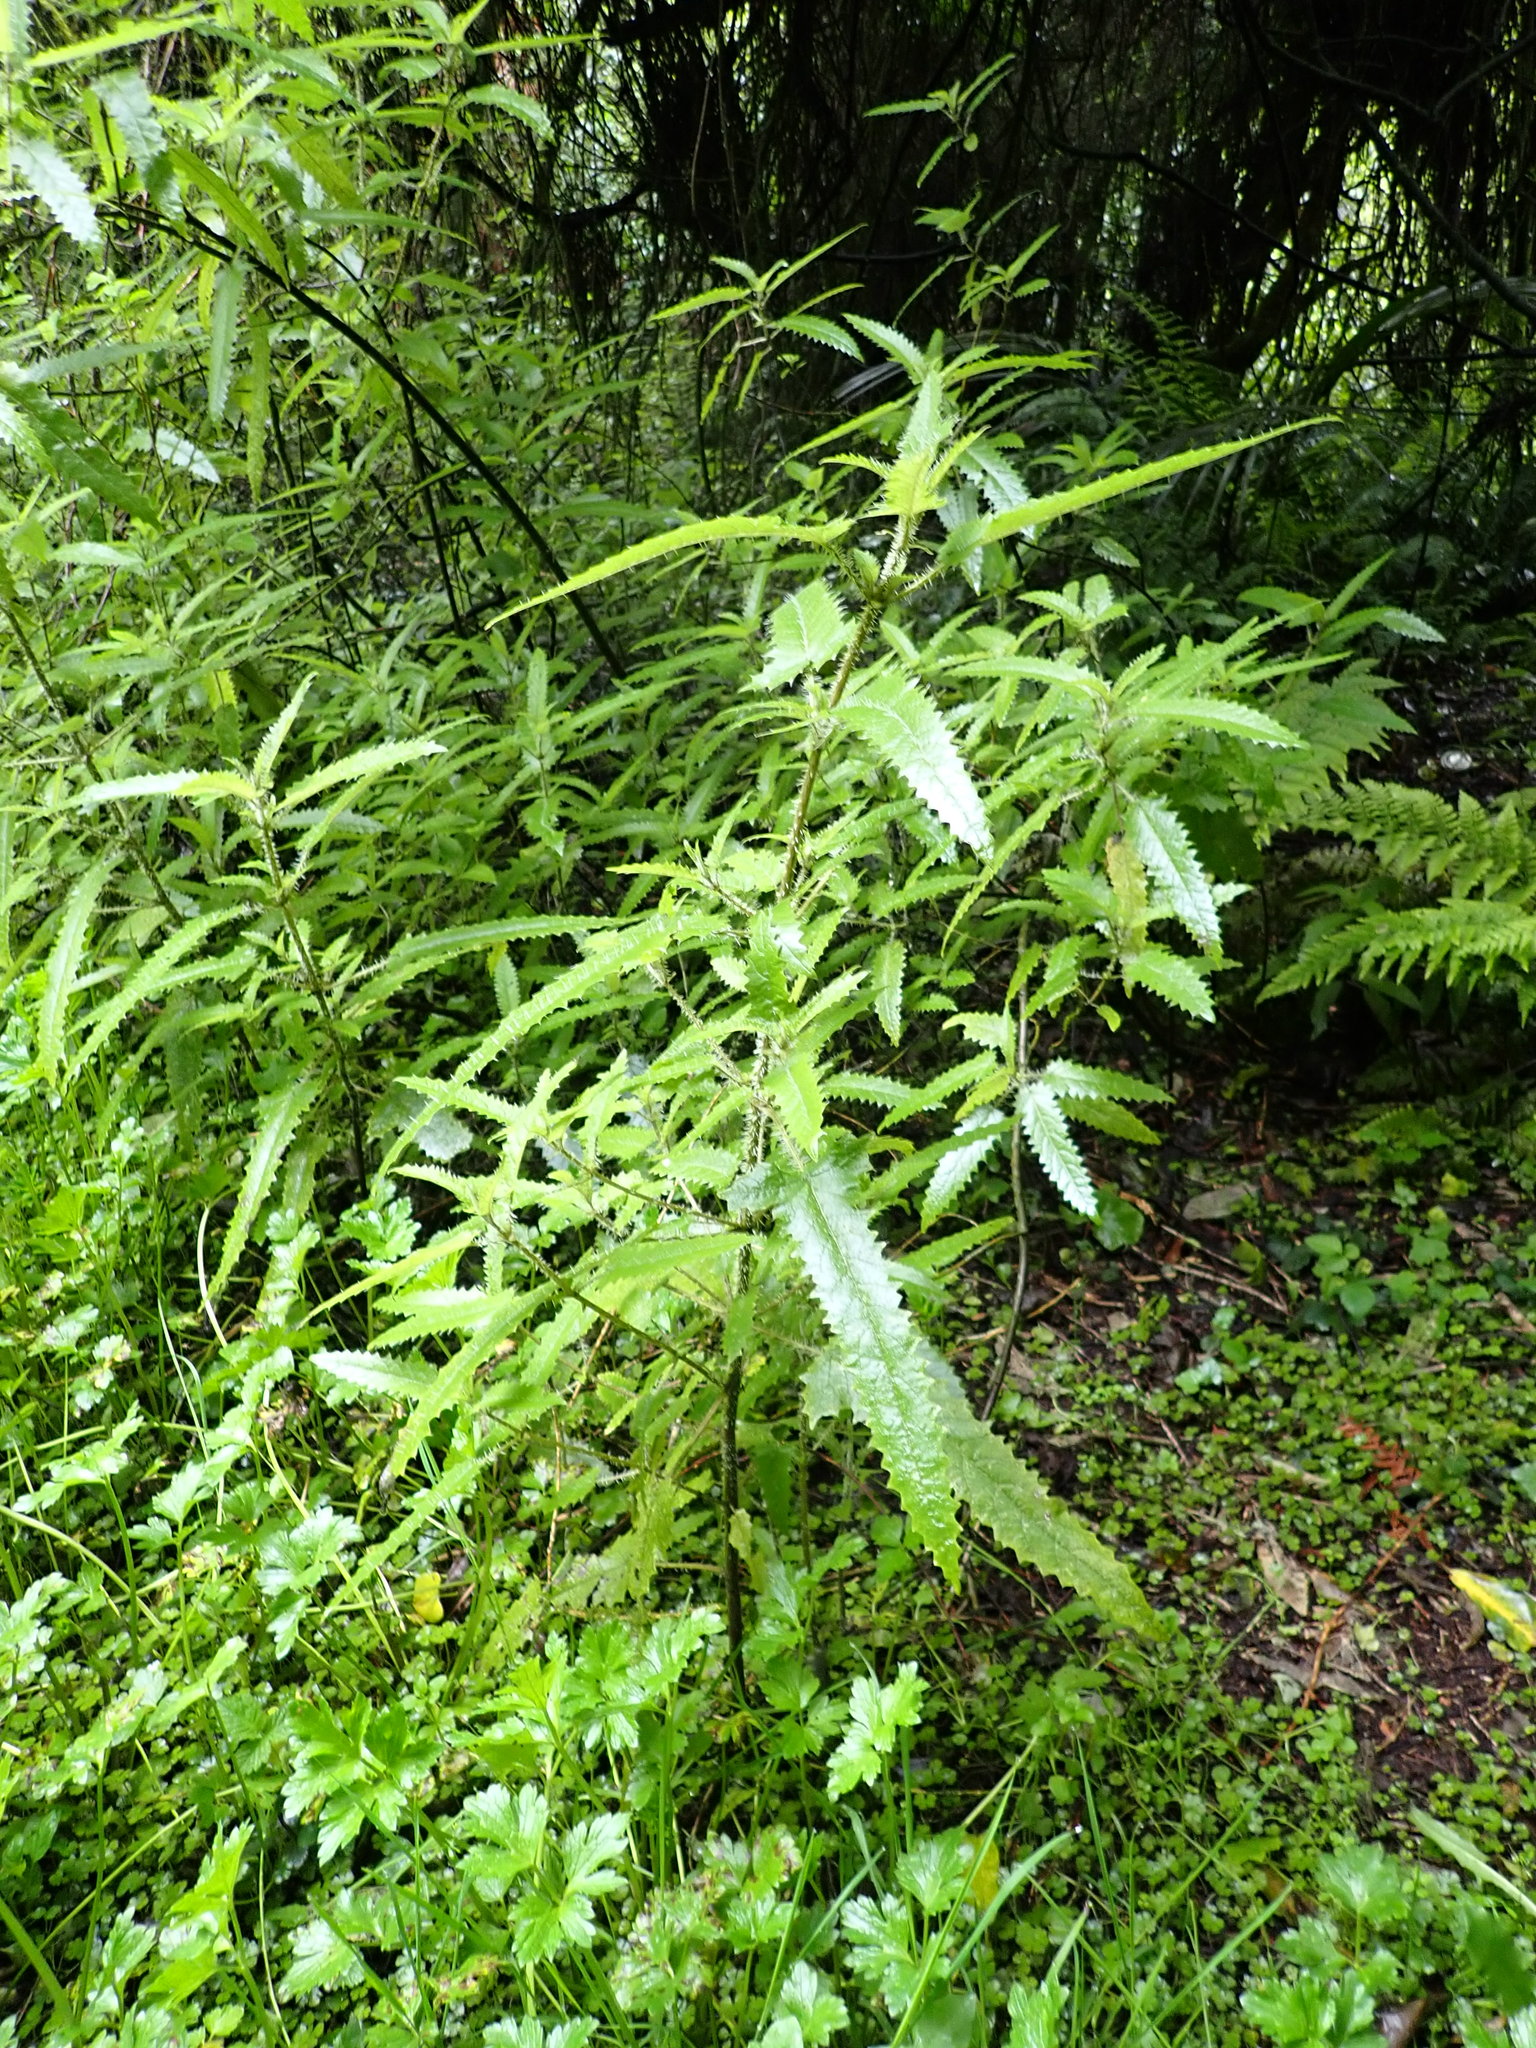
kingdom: Plantae
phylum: Tracheophyta
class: Magnoliopsida
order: Rosales
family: Urticaceae
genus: Urtica
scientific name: Urtica ferox
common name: Tree nettle
